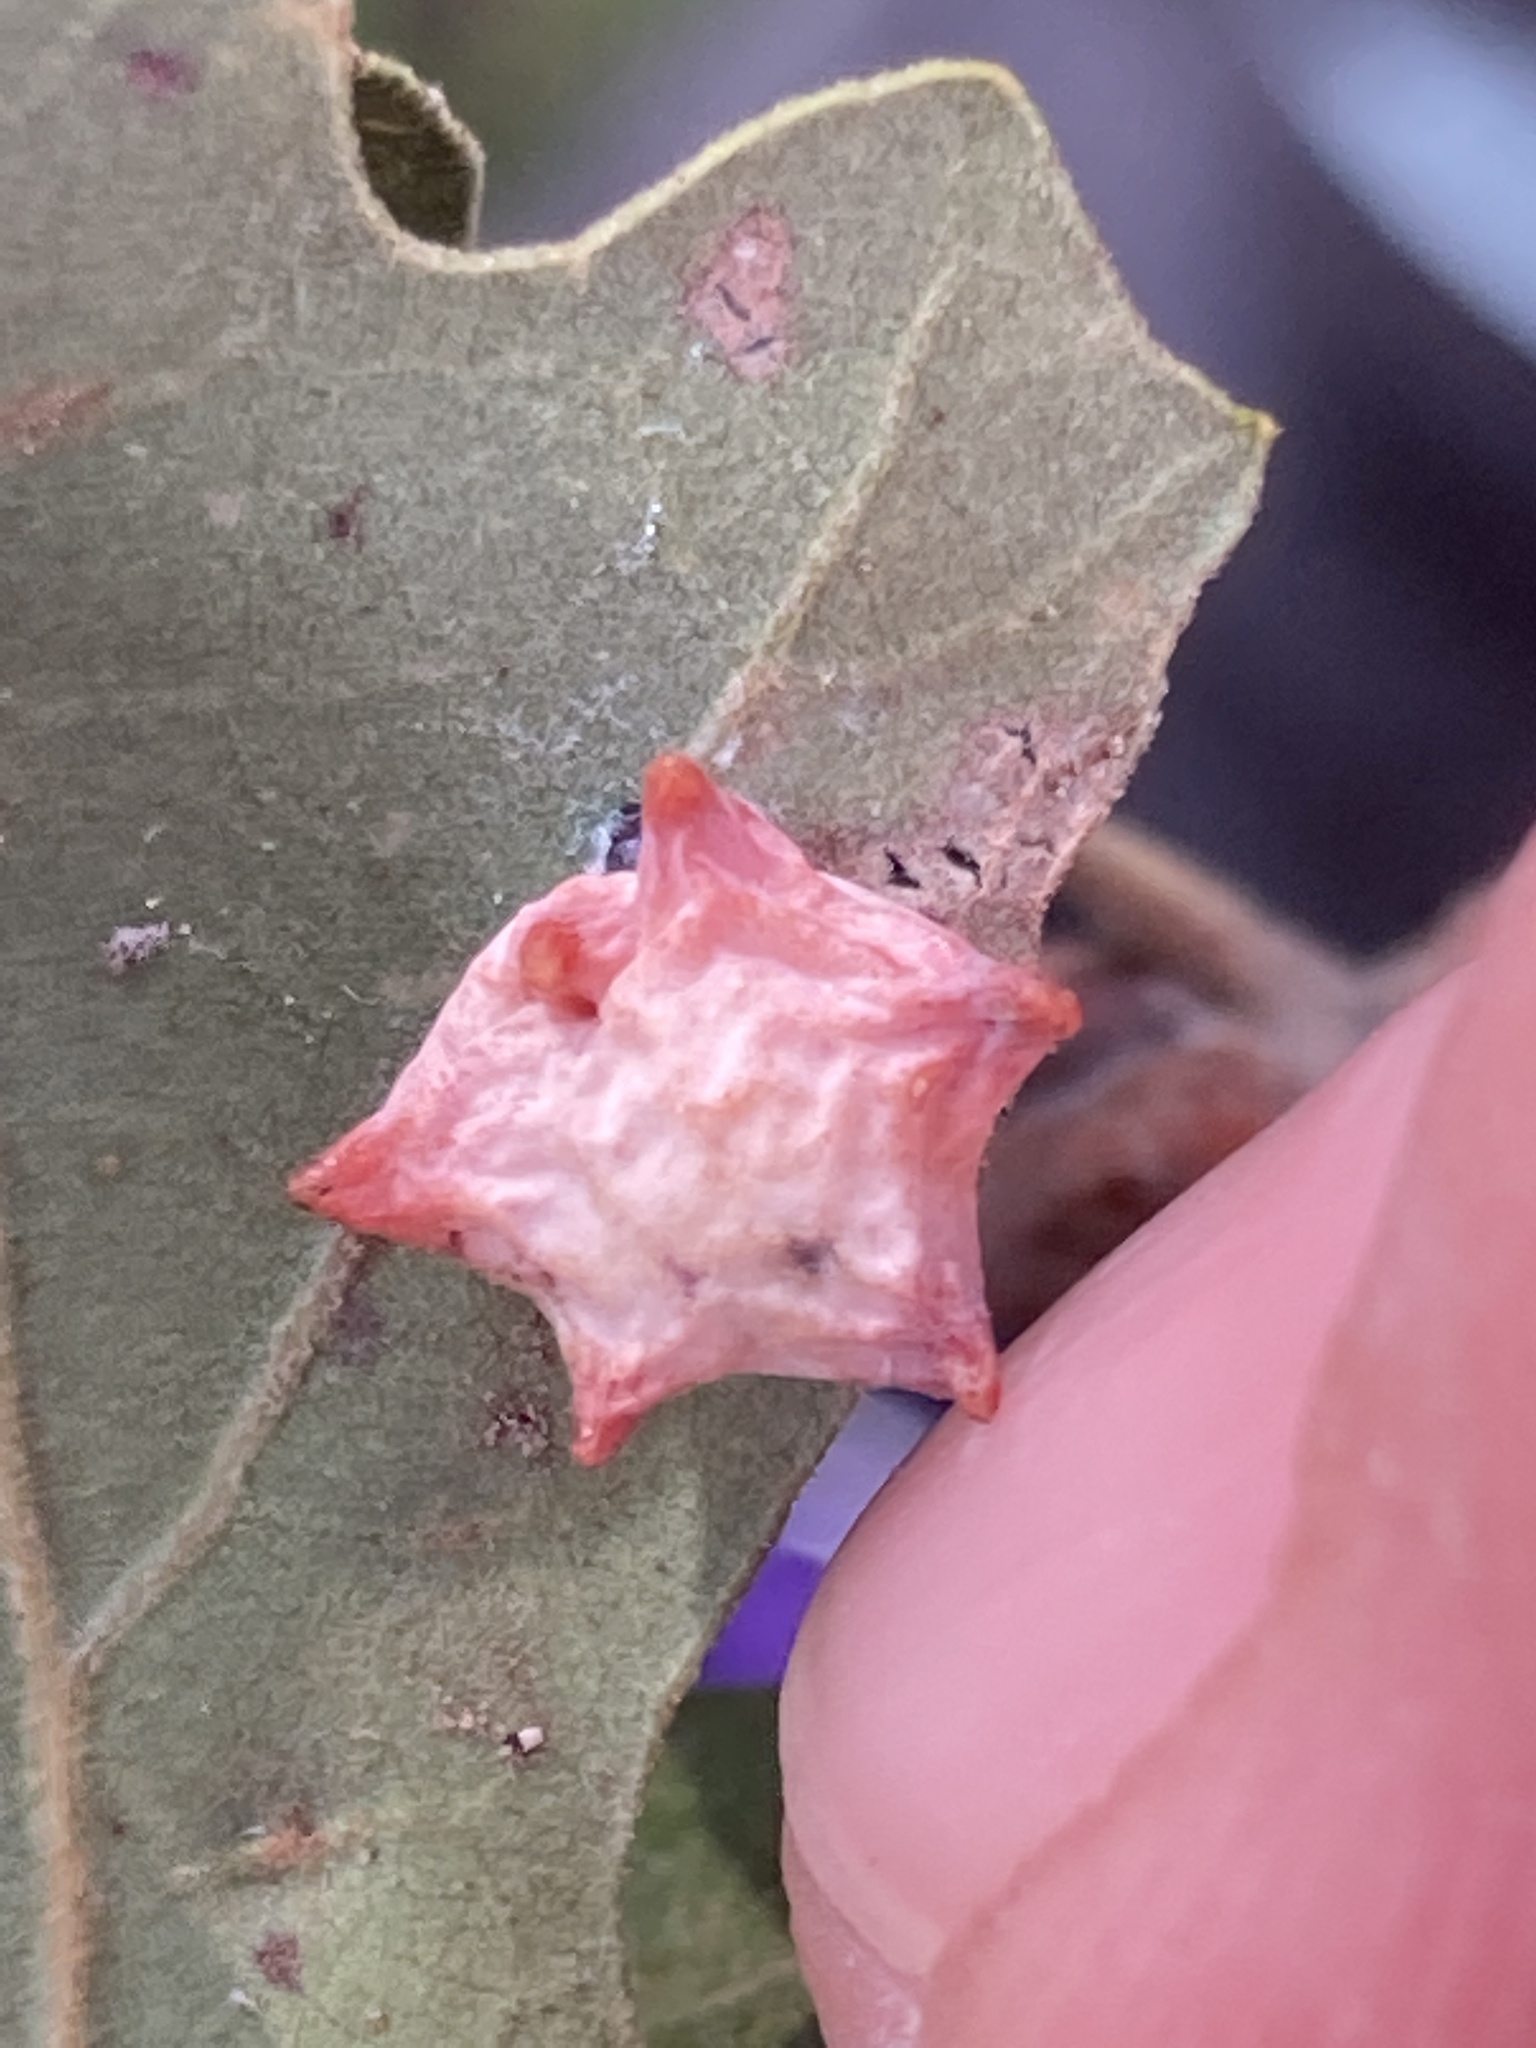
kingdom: Animalia
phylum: Arthropoda
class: Insecta
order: Hymenoptera
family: Cynipidae
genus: Cynips
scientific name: Cynips douglasi
